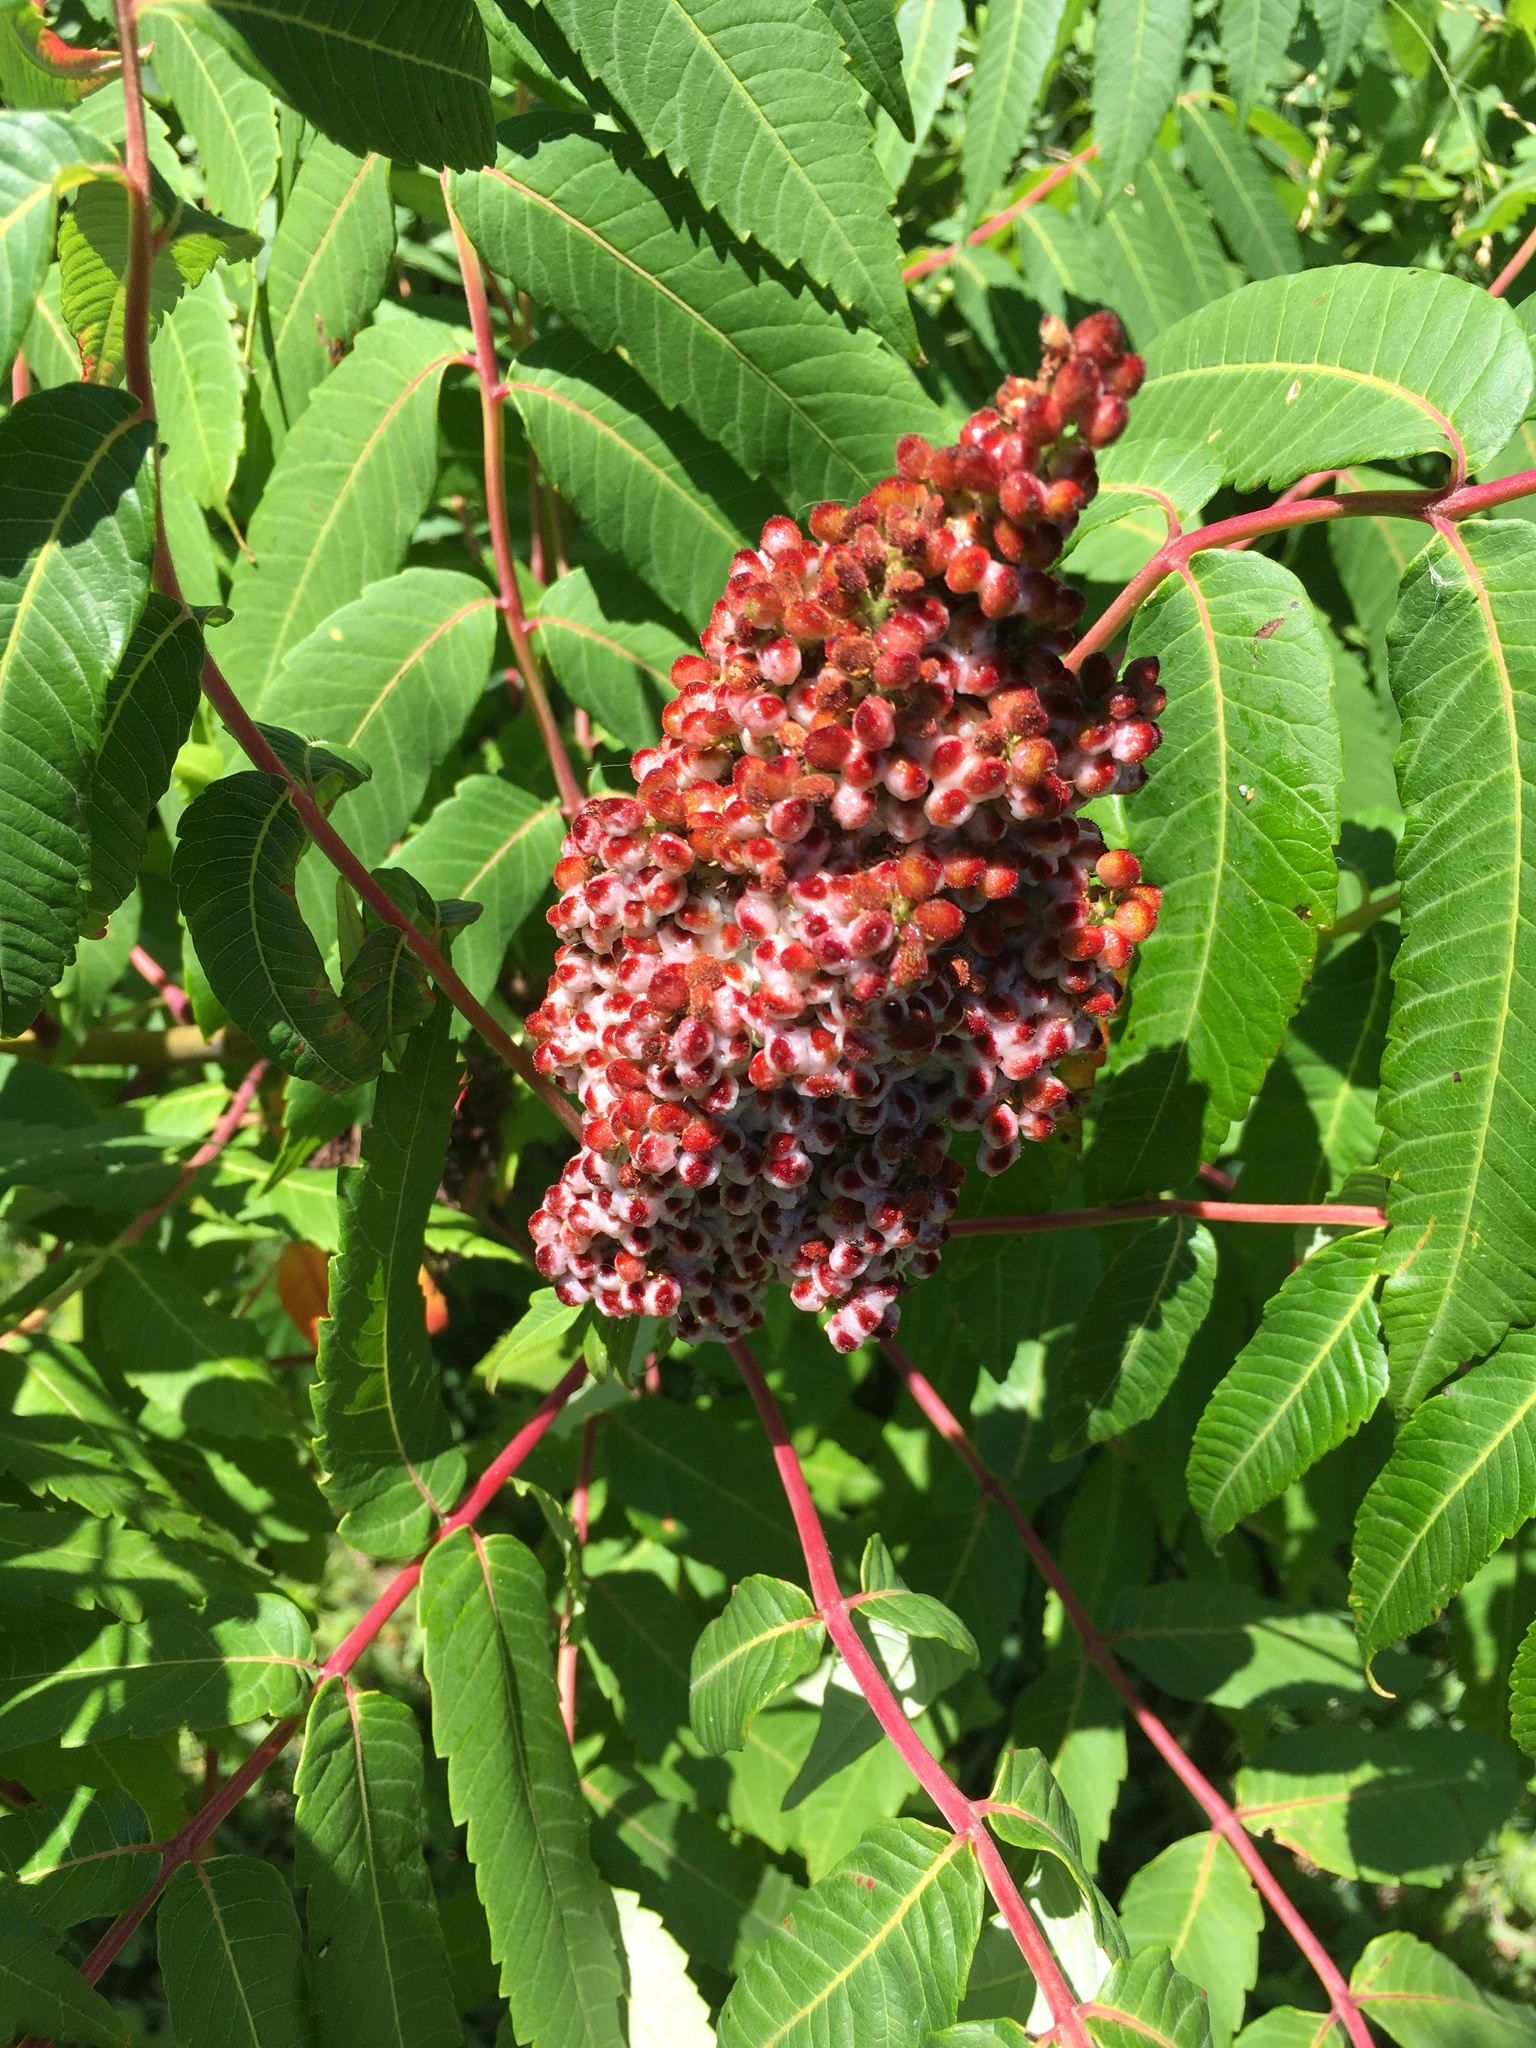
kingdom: Plantae
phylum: Tracheophyta
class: Magnoliopsida
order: Sapindales
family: Anacardiaceae
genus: Rhus
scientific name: Rhus glabra
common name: Scarlet sumac
